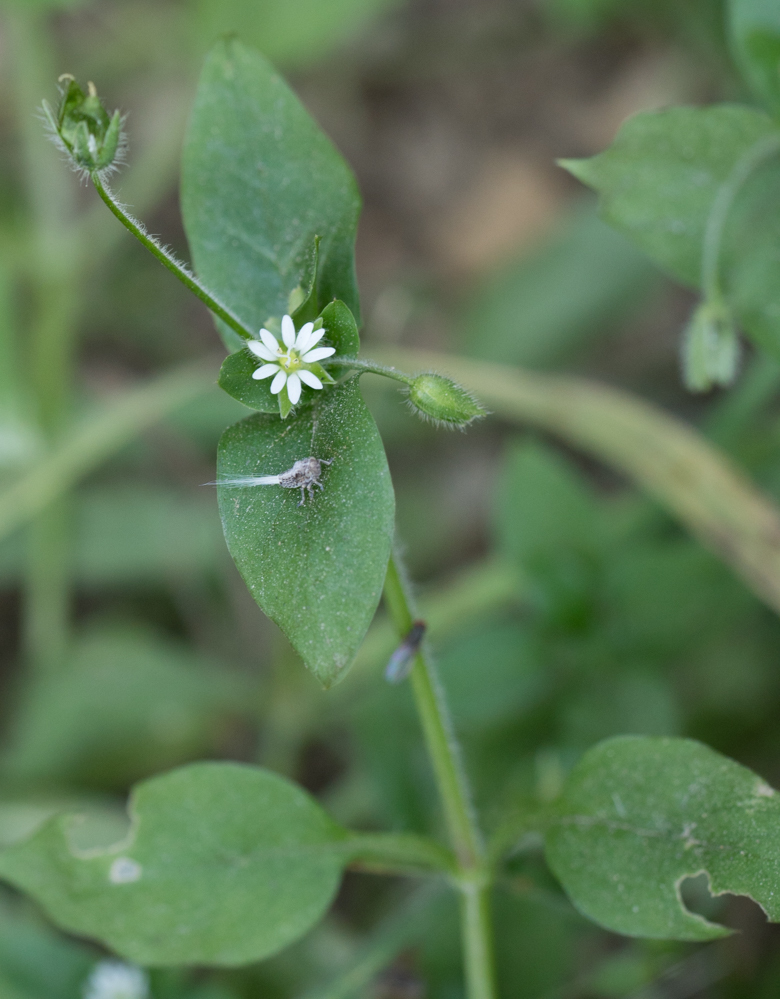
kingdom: Plantae
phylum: Tracheophyta
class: Magnoliopsida
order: Caryophyllales
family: Caryophyllaceae
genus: Stellaria
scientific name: Stellaria media
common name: Common chickweed
